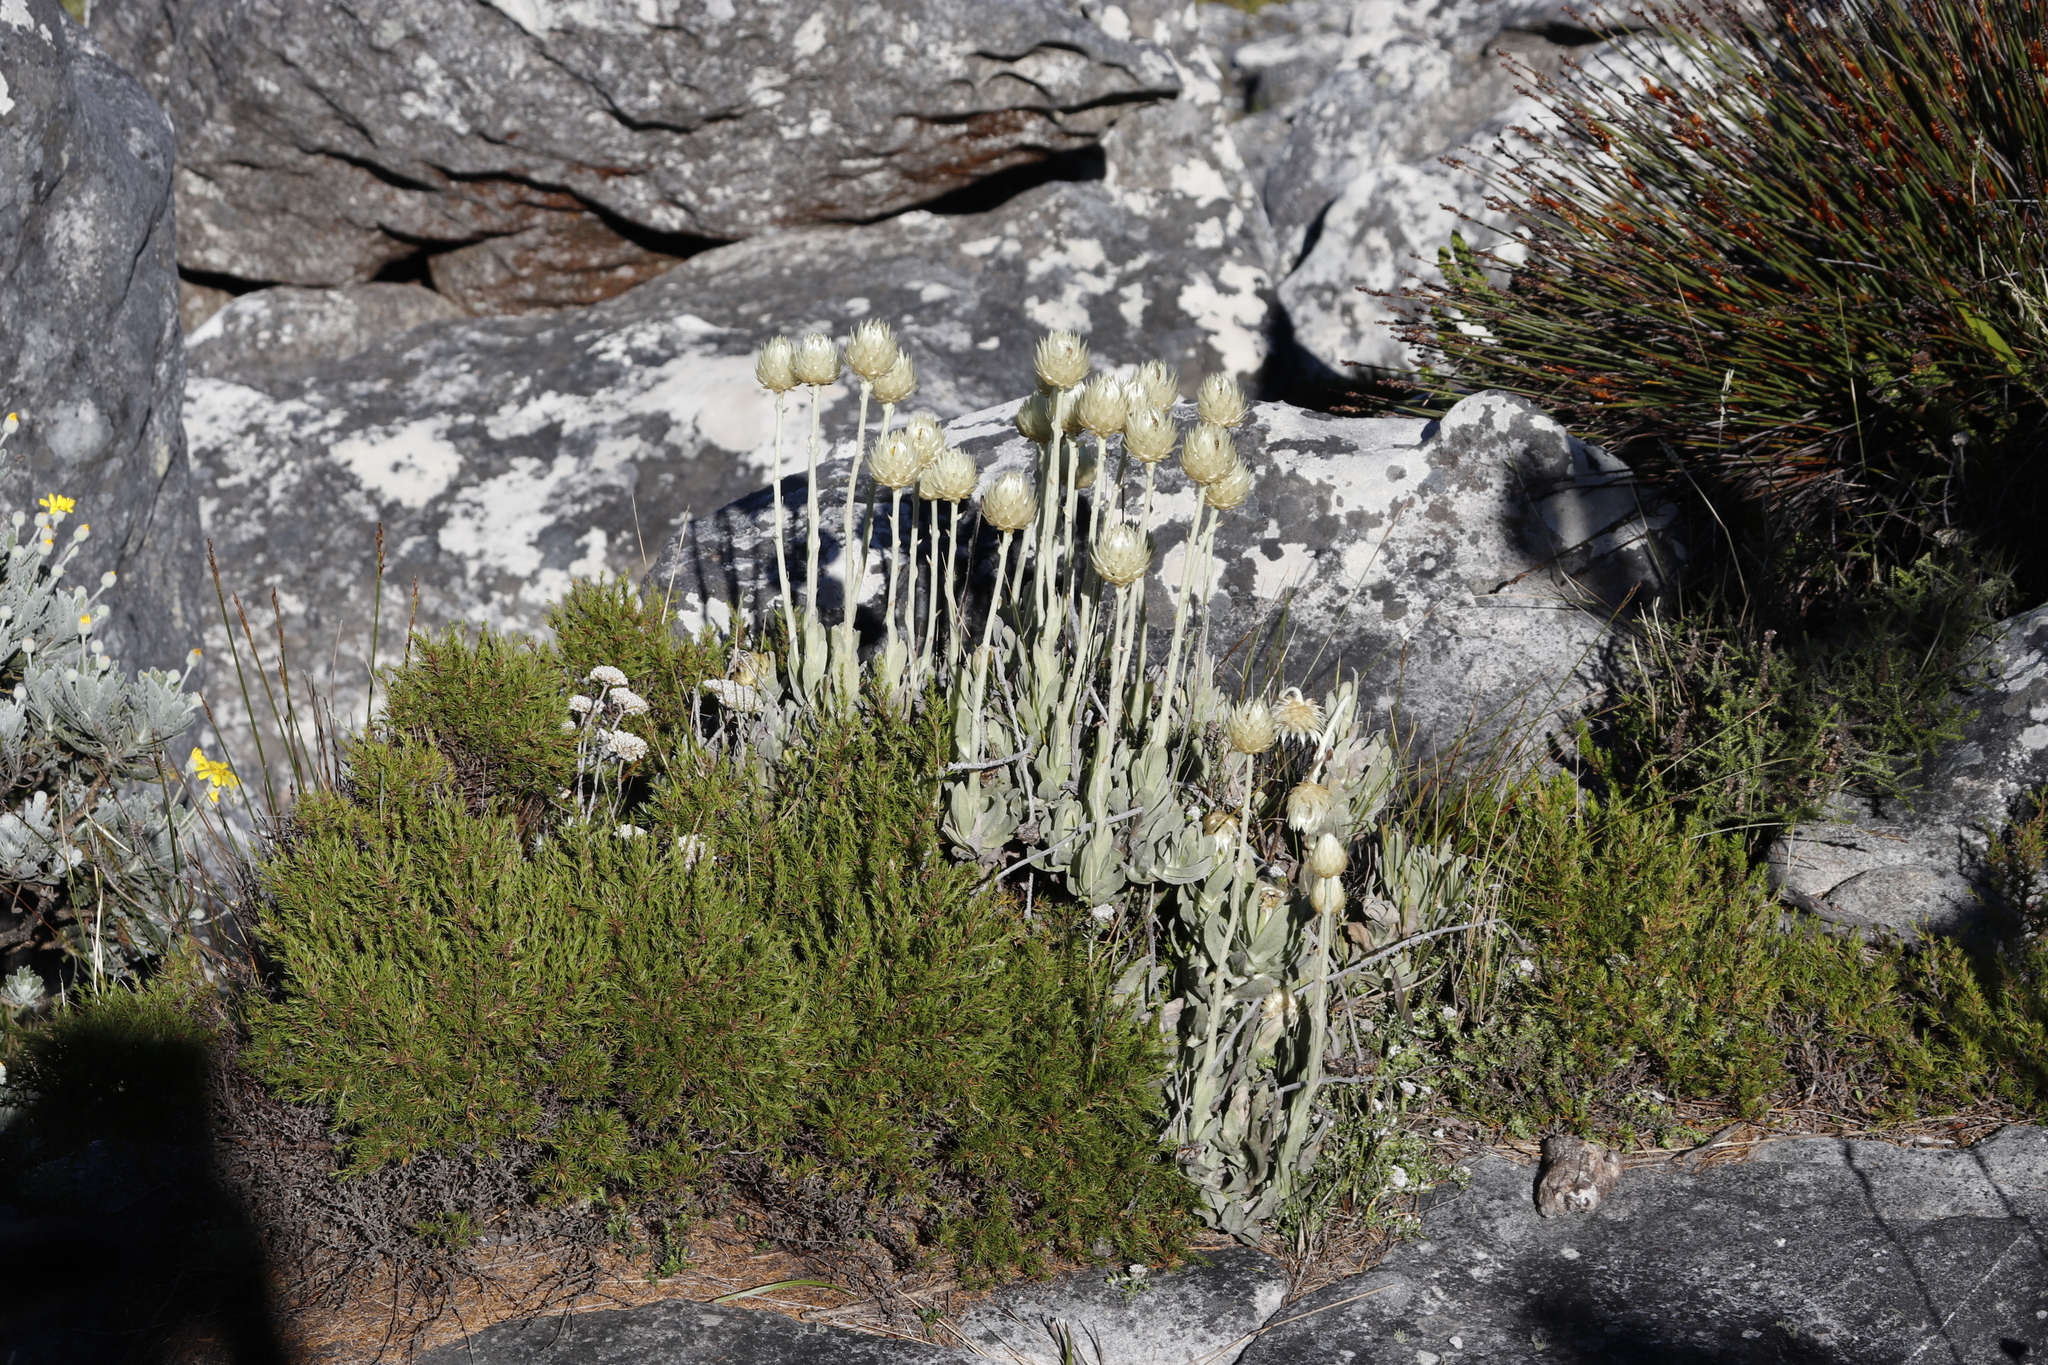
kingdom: Plantae
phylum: Tracheophyta
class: Magnoliopsida
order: Asterales
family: Asteraceae
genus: Syncarpha
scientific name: Syncarpha speciosissima
